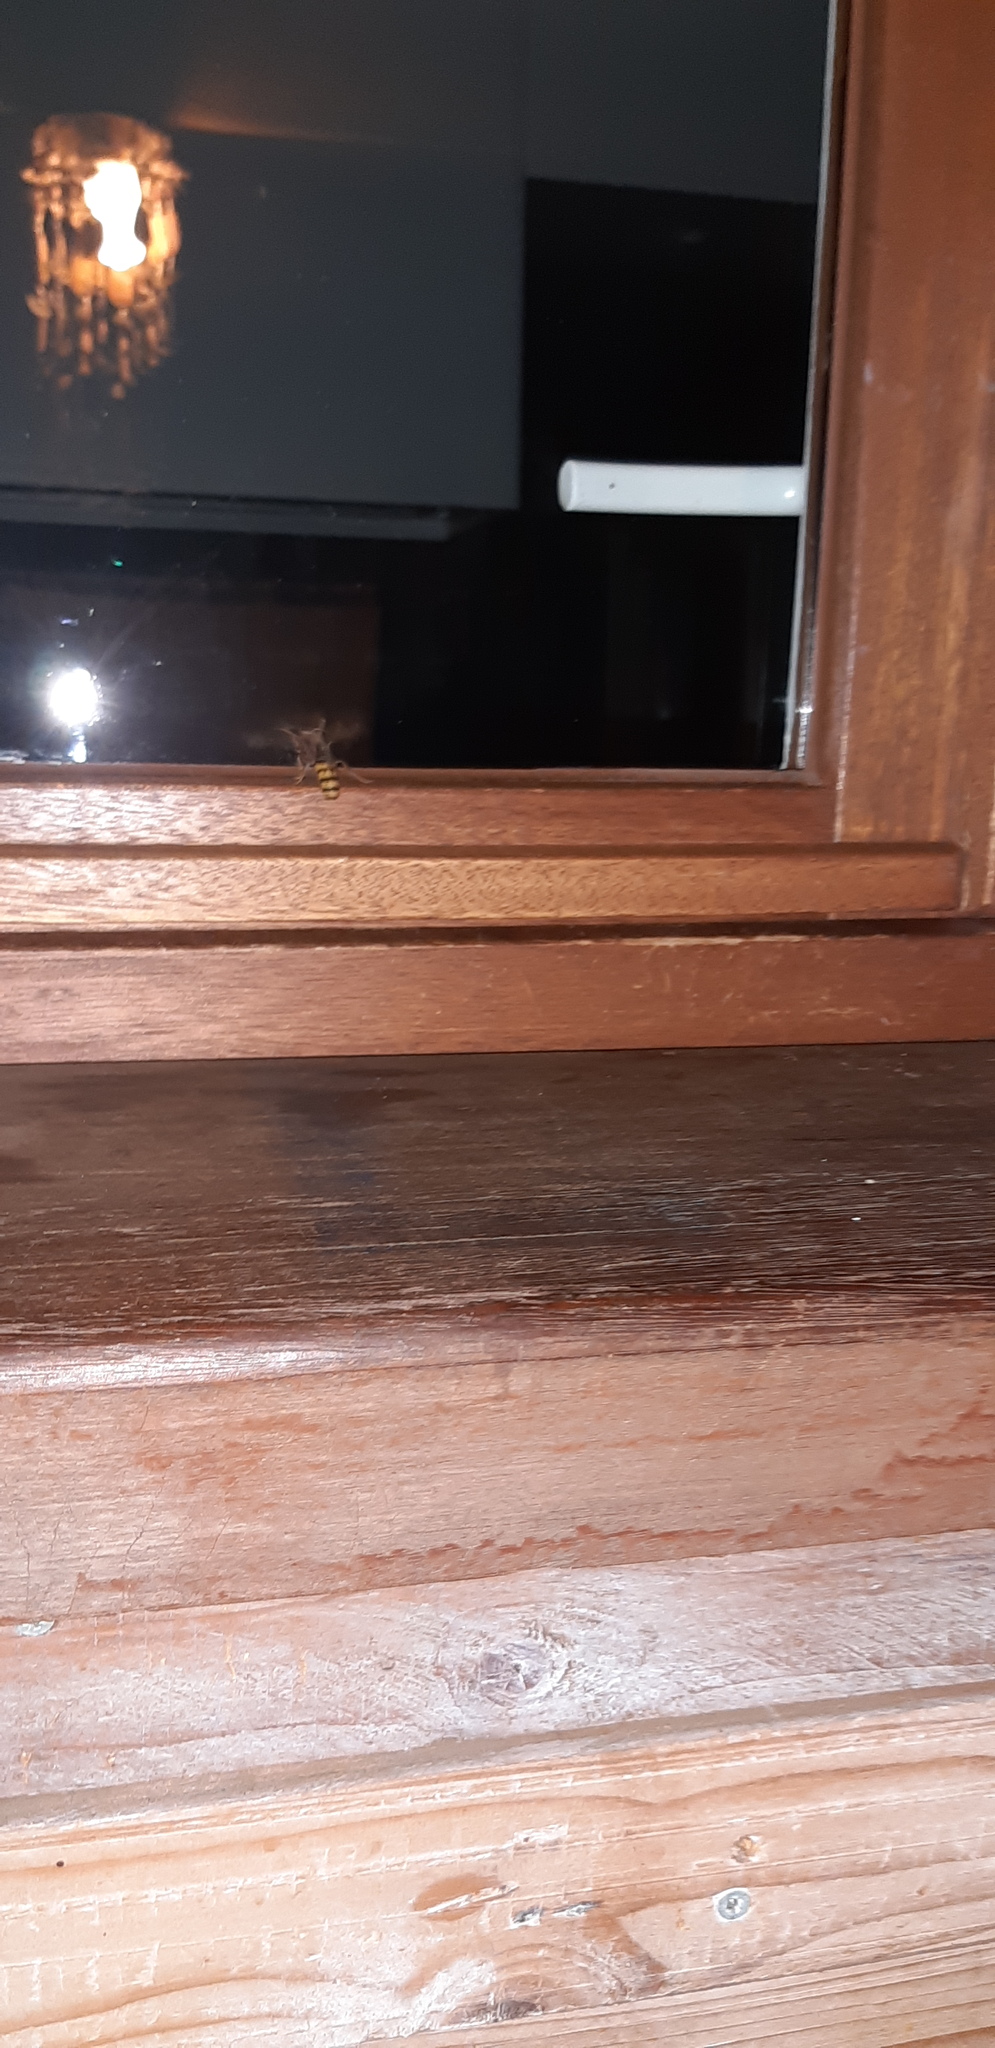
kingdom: Animalia
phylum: Arthropoda
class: Insecta
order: Hymenoptera
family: Vespidae
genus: Vespa
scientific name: Vespa crabro
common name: Hornet
